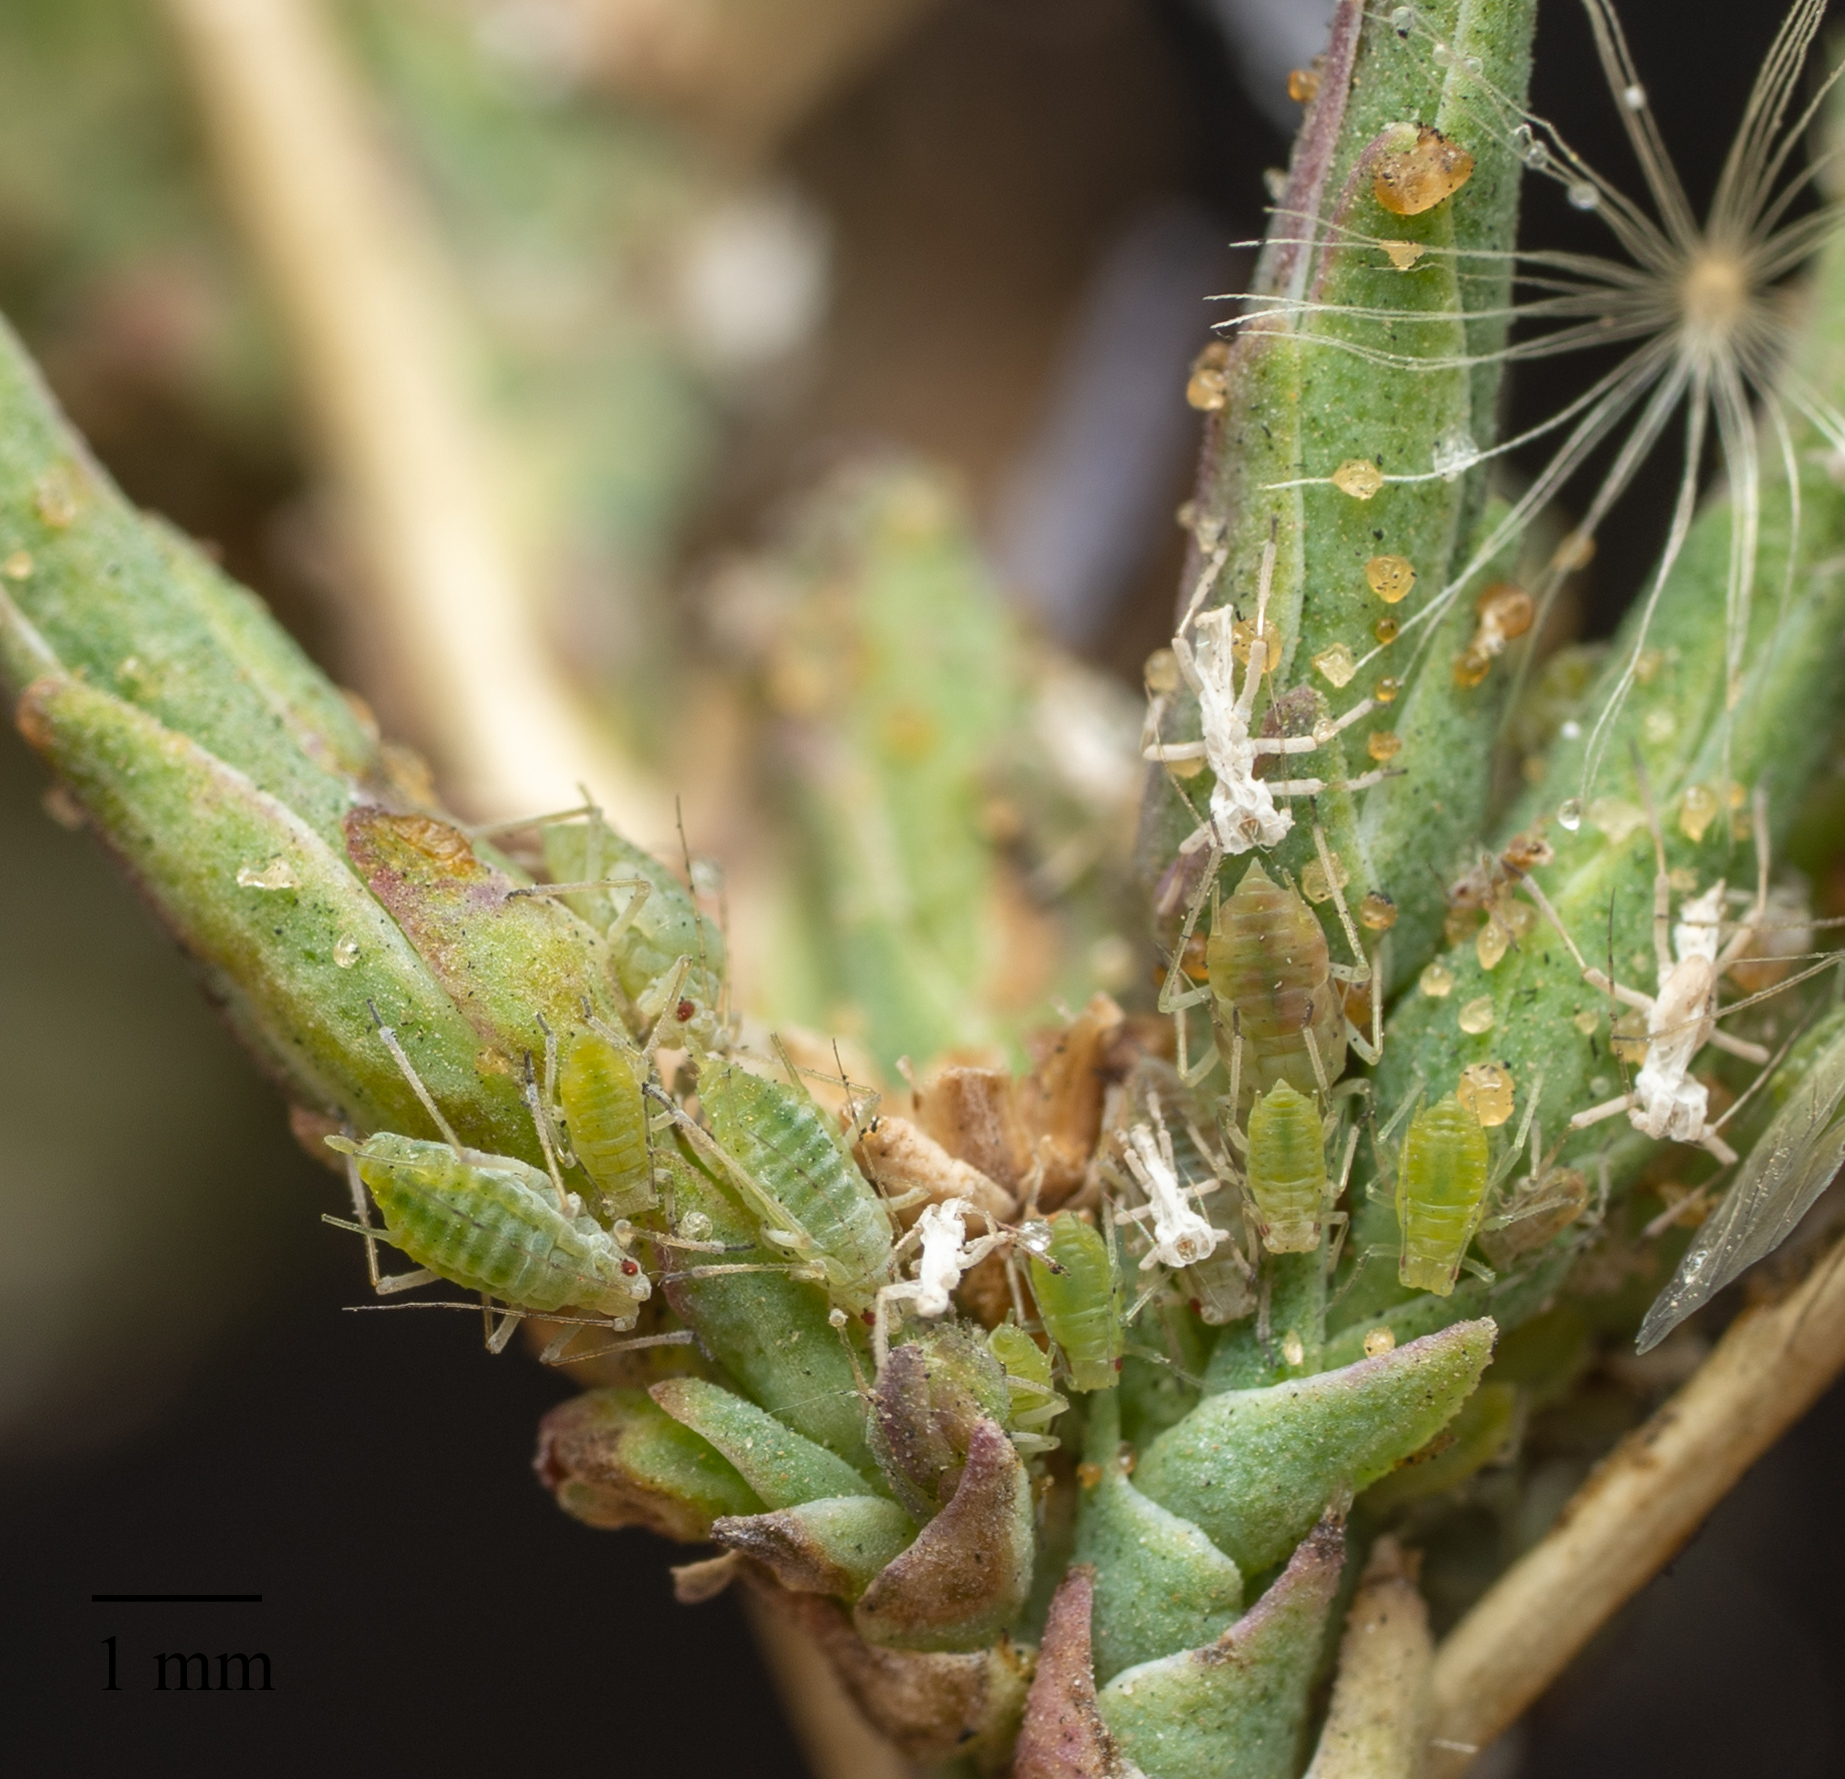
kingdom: Animalia
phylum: Arthropoda
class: Insecta
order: Hemiptera
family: Aphididae
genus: Acyrthosiphon
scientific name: Acyrthosiphon lactucae
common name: Aphid
